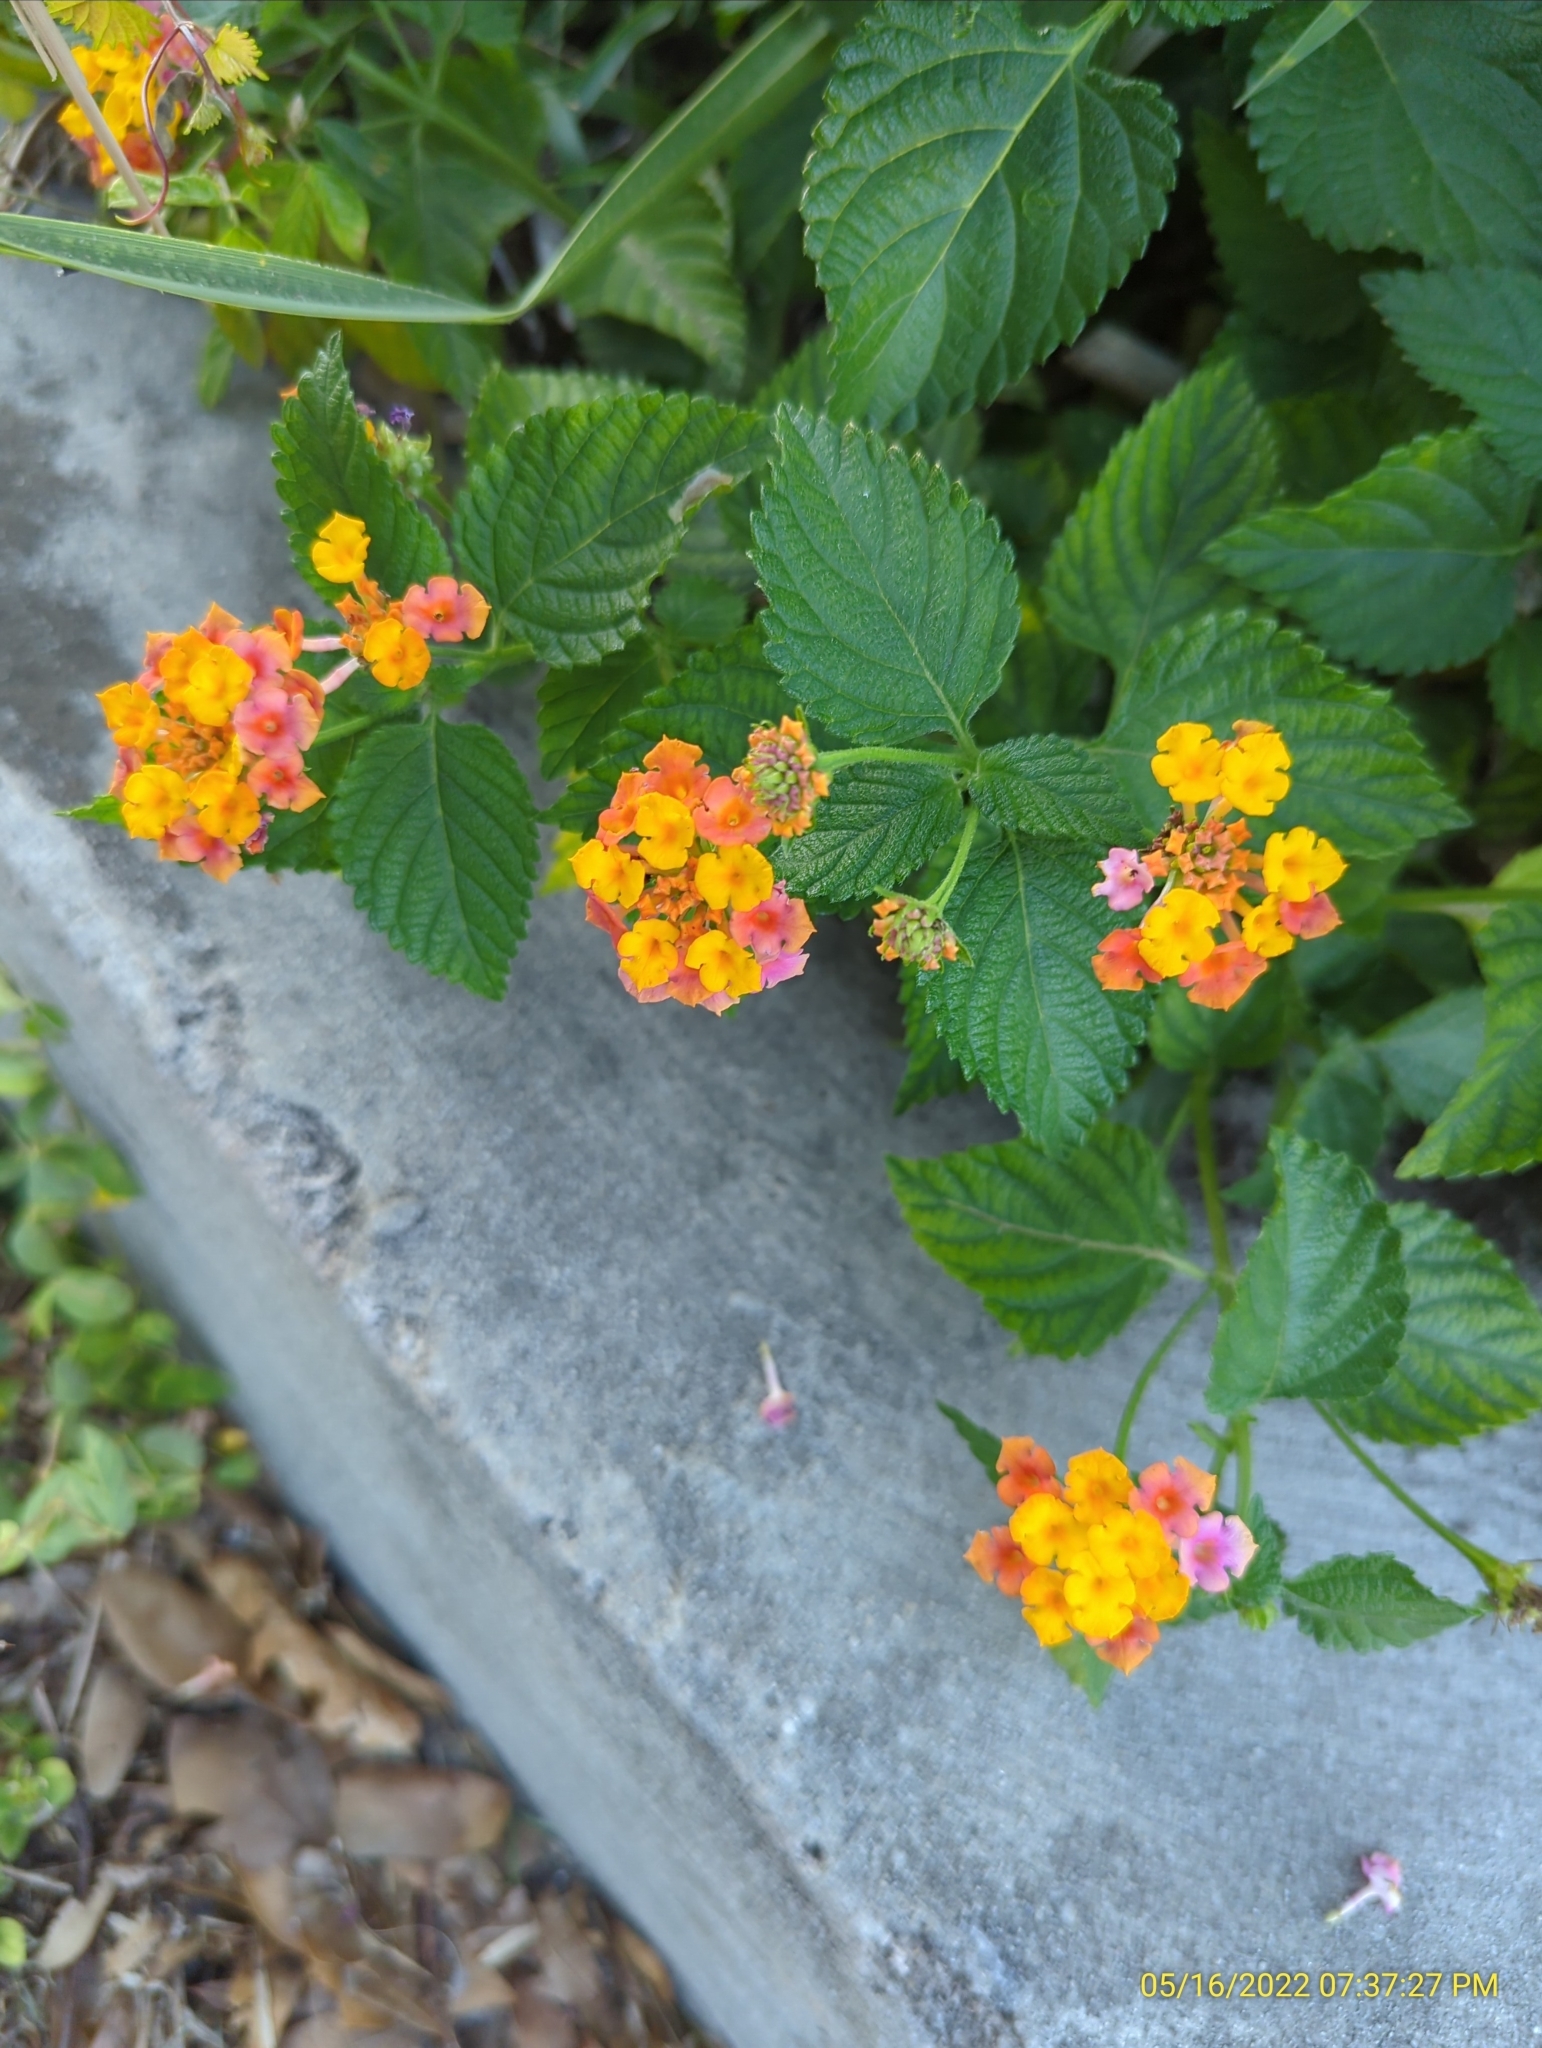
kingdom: Plantae
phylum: Tracheophyta
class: Magnoliopsida
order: Lamiales
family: Verbenaceae
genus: Lantana
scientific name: Lantana strigocamara
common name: Lantana
